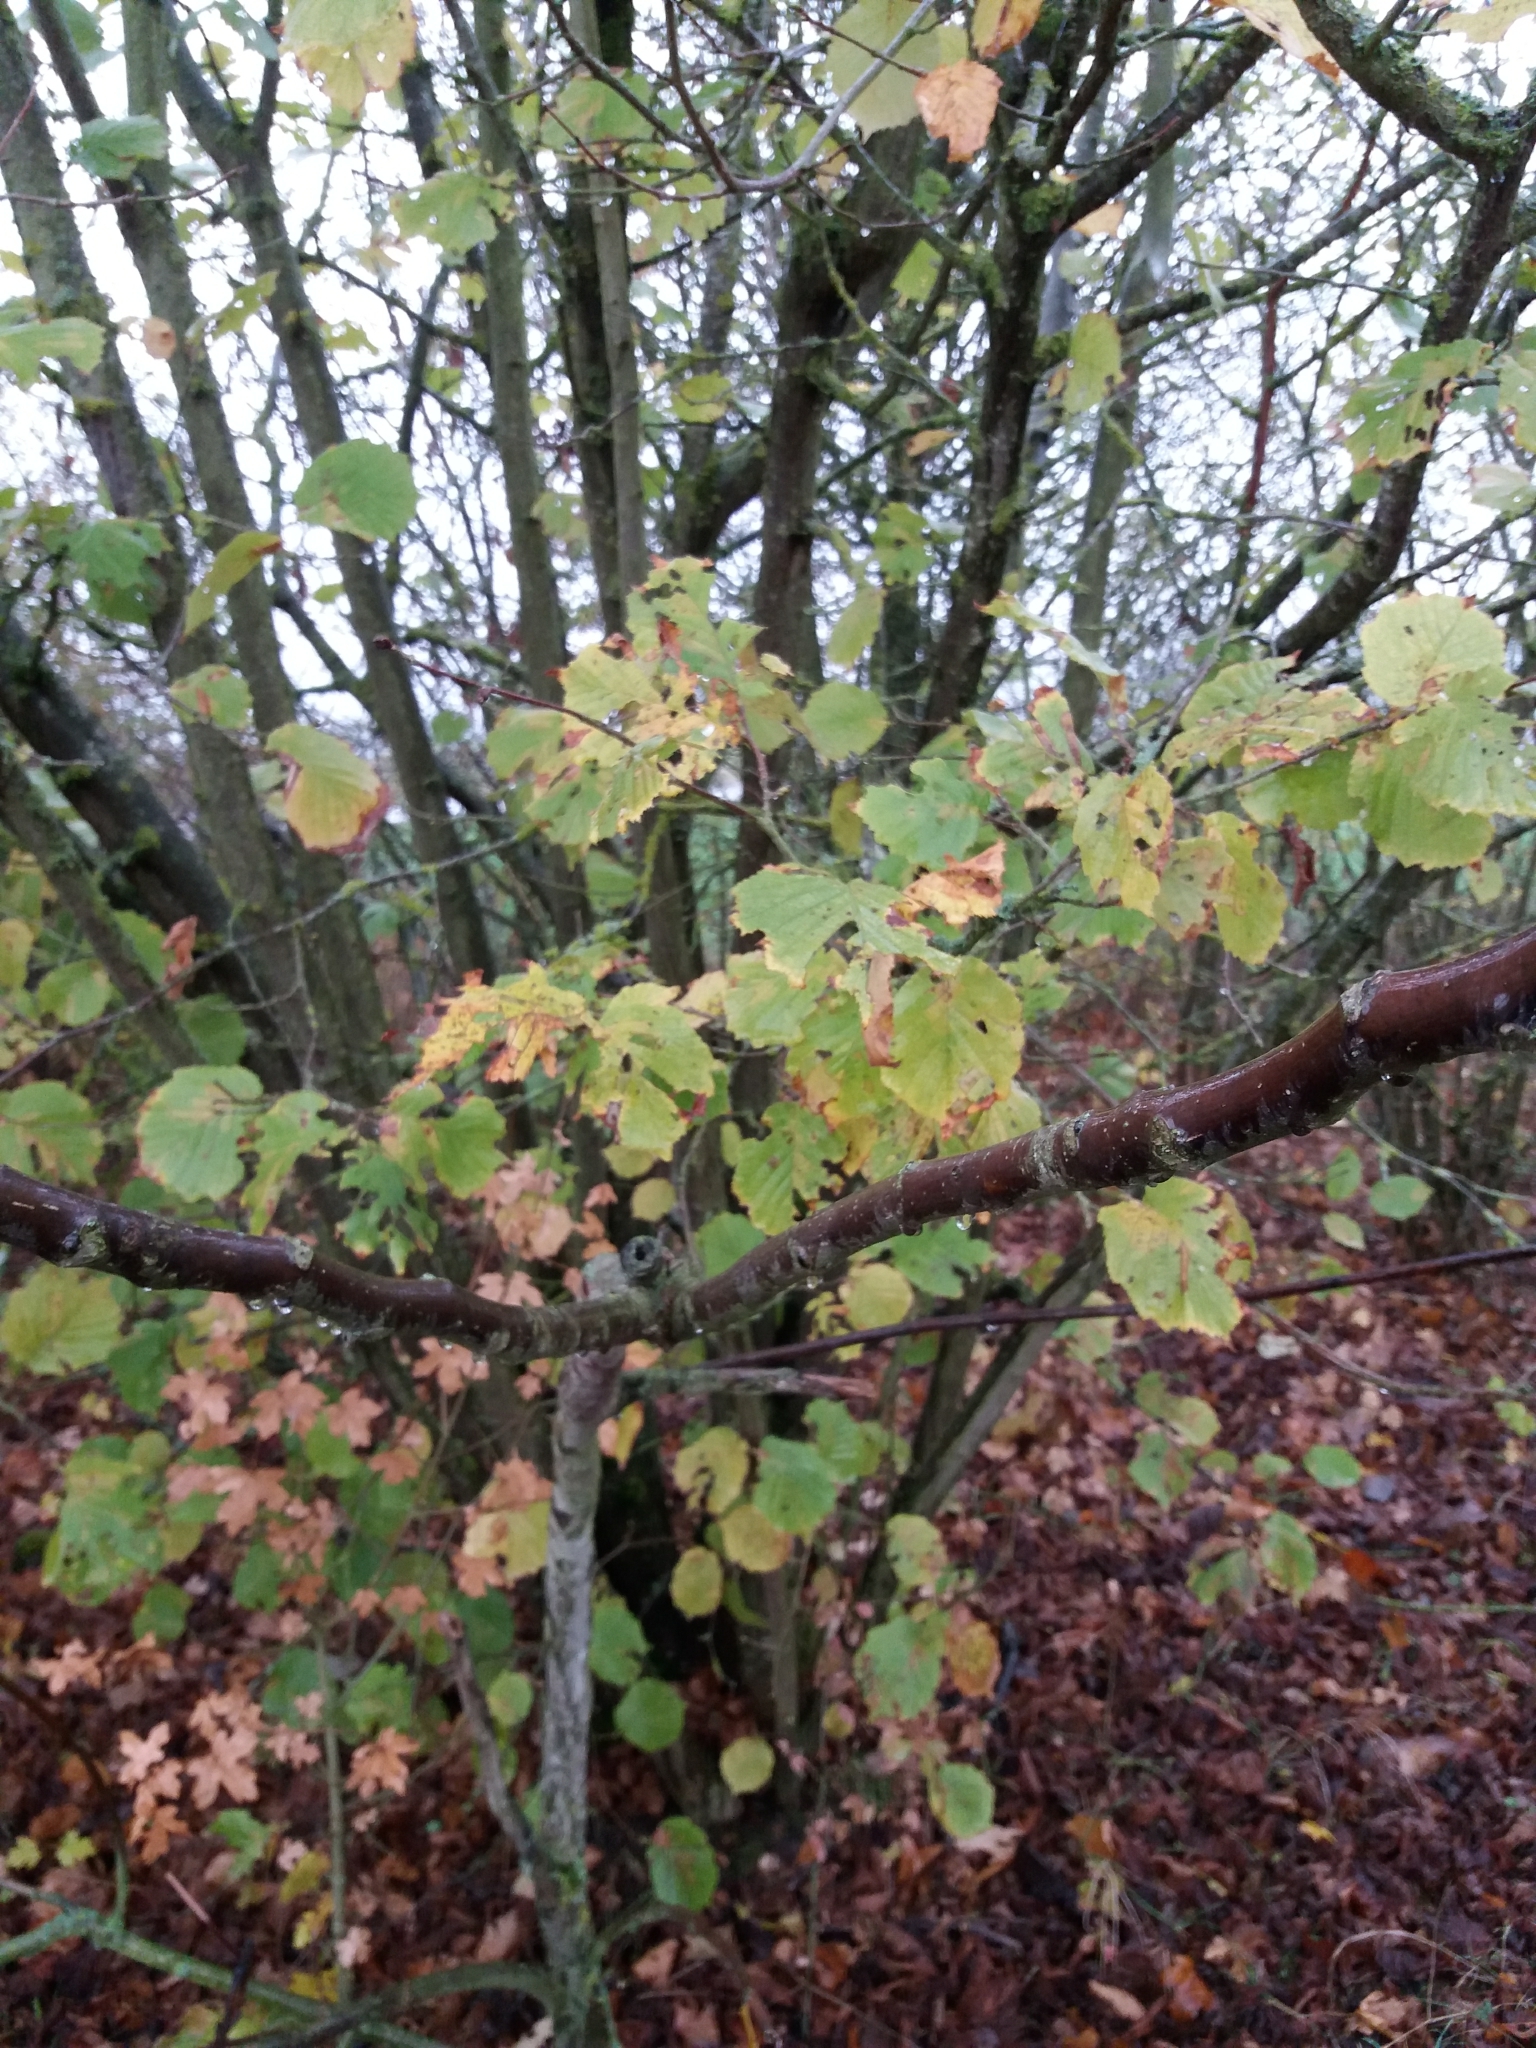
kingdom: Plantae
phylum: Tracheophyta
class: Magnoliopsida
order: Fagales
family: Betulaceae
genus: Corylus
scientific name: Corylus avellana
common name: European hazel
